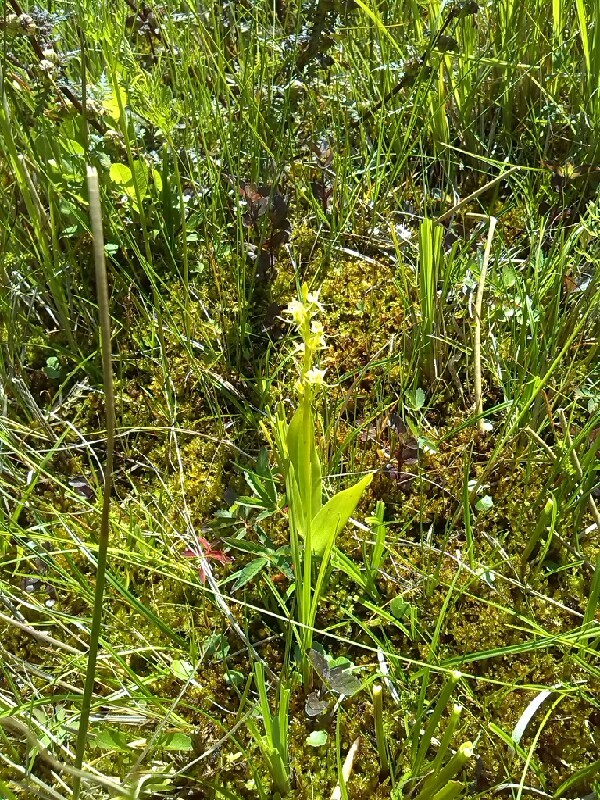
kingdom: Animalia
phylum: Arthropoda
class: Insecta
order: Coleoptera
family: Curculionidae
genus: Liparis
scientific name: Liparis loeselii
